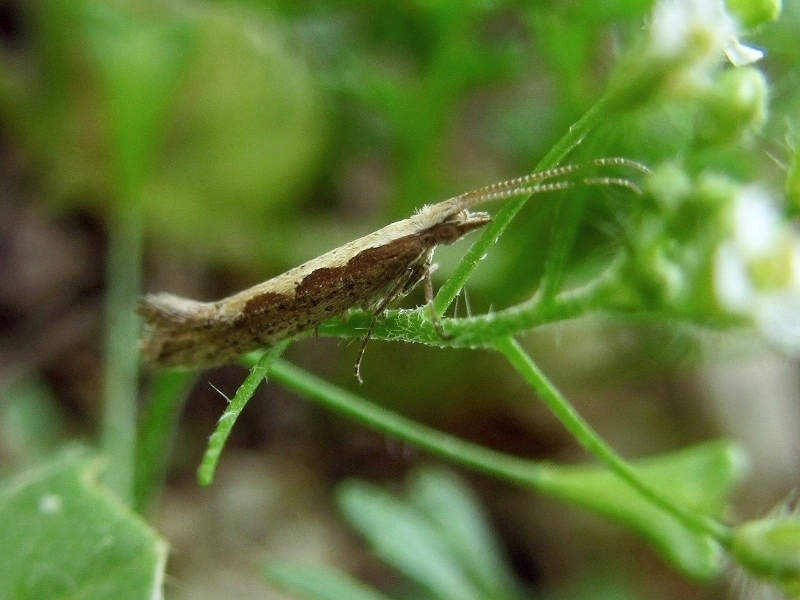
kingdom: Animalia
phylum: Arthropoda
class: Insecta
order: Lepidoptera
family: Plutellidae
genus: Plutella
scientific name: Plutella xylostella
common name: Diamond-back moth
